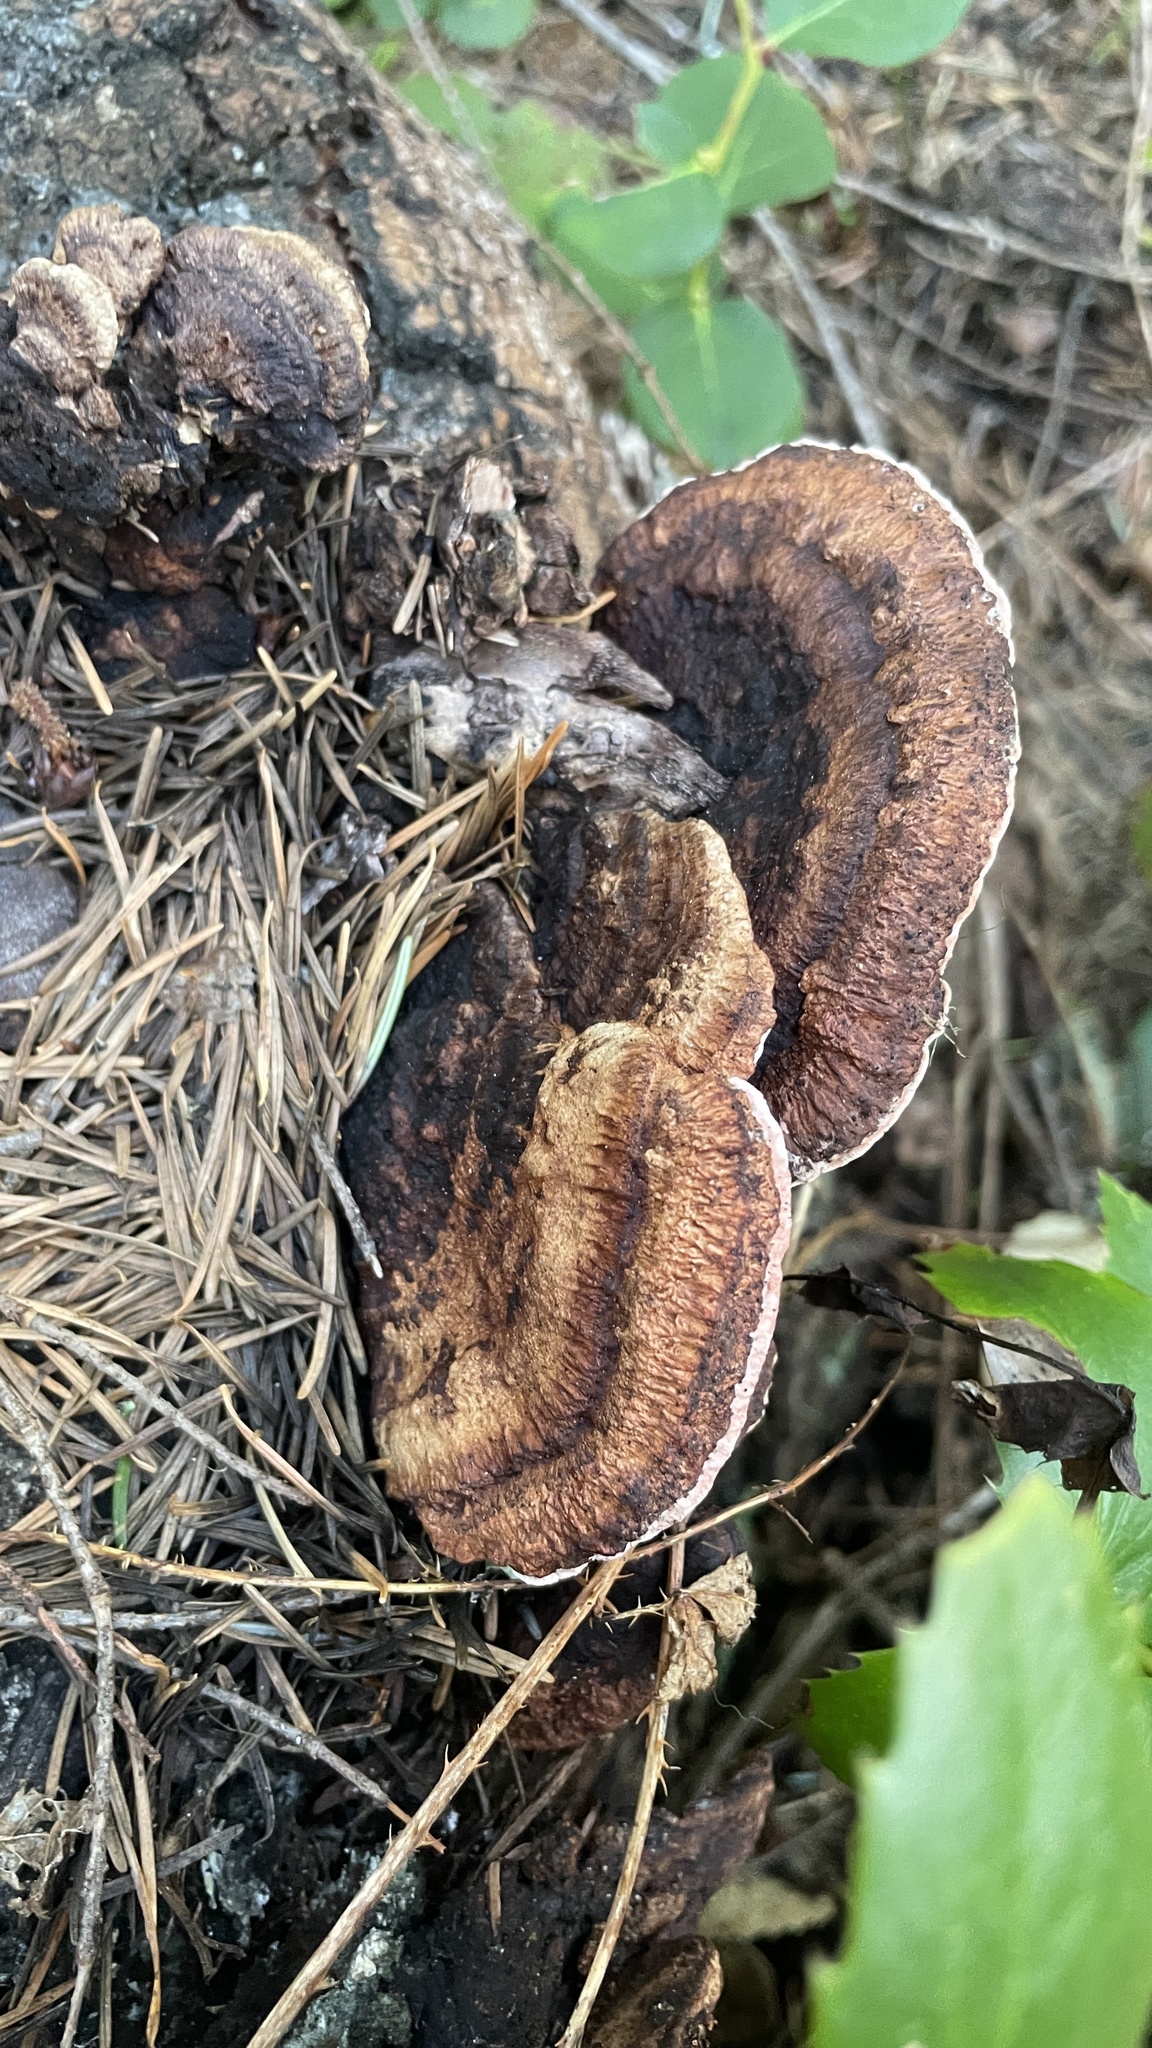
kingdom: Fungi
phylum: Basidiomycota
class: Agaricomycetes
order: Polyporales
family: Fomitopsidaceae
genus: Rhodofomes
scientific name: Rhodofomes cajanderi
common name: Rosy conk
